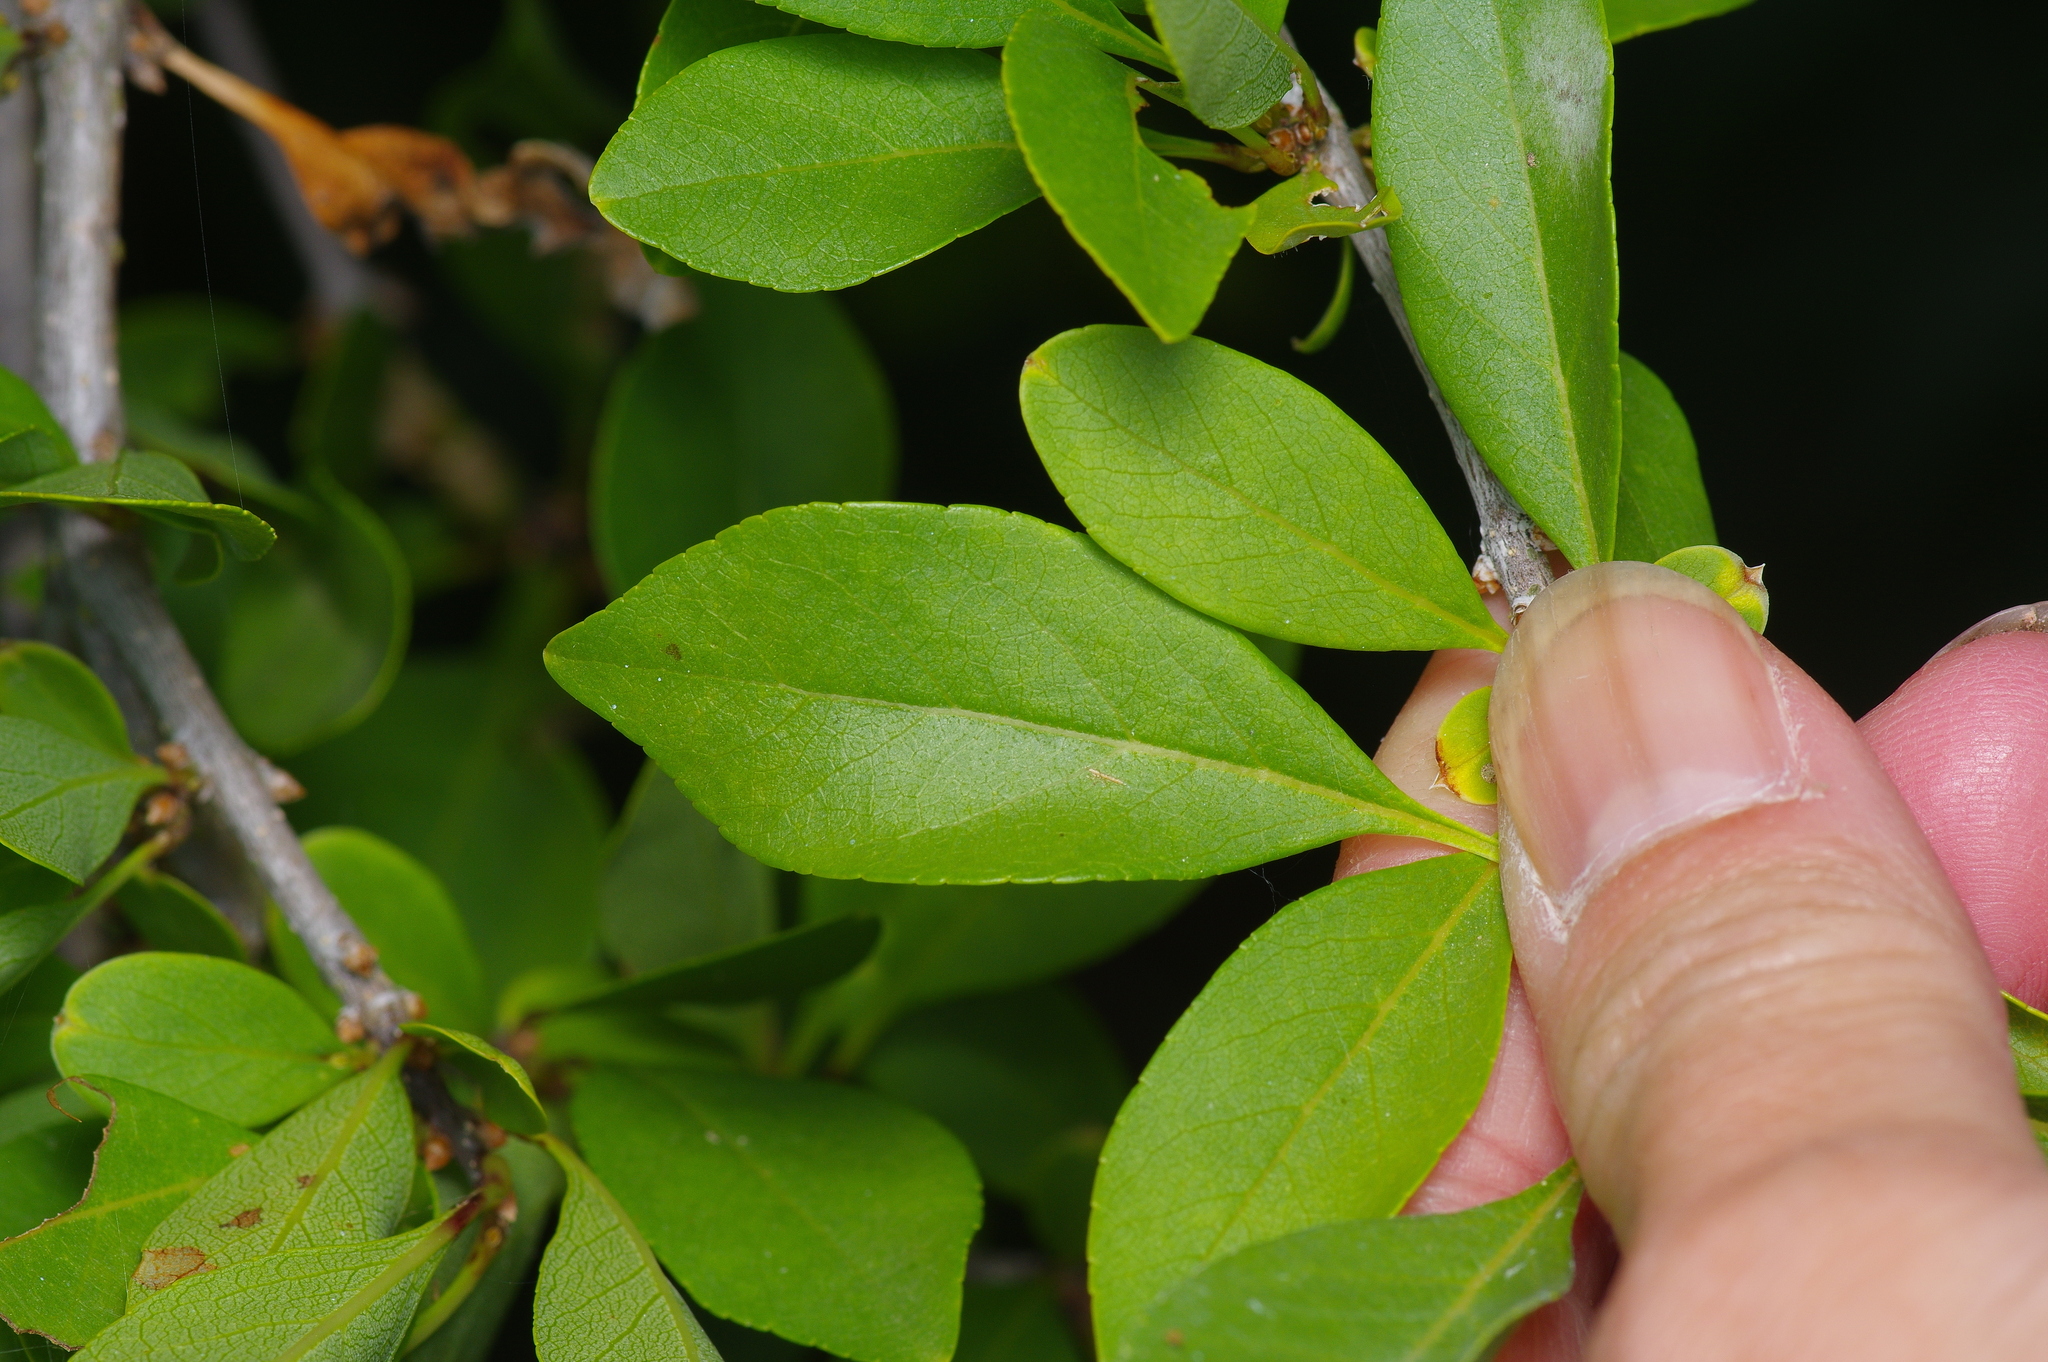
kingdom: Plantae
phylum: Tracheophyta
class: Magnoliopsida
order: Lamiales
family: Oleaceae
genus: Forestiera
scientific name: Forestiera pubescens
